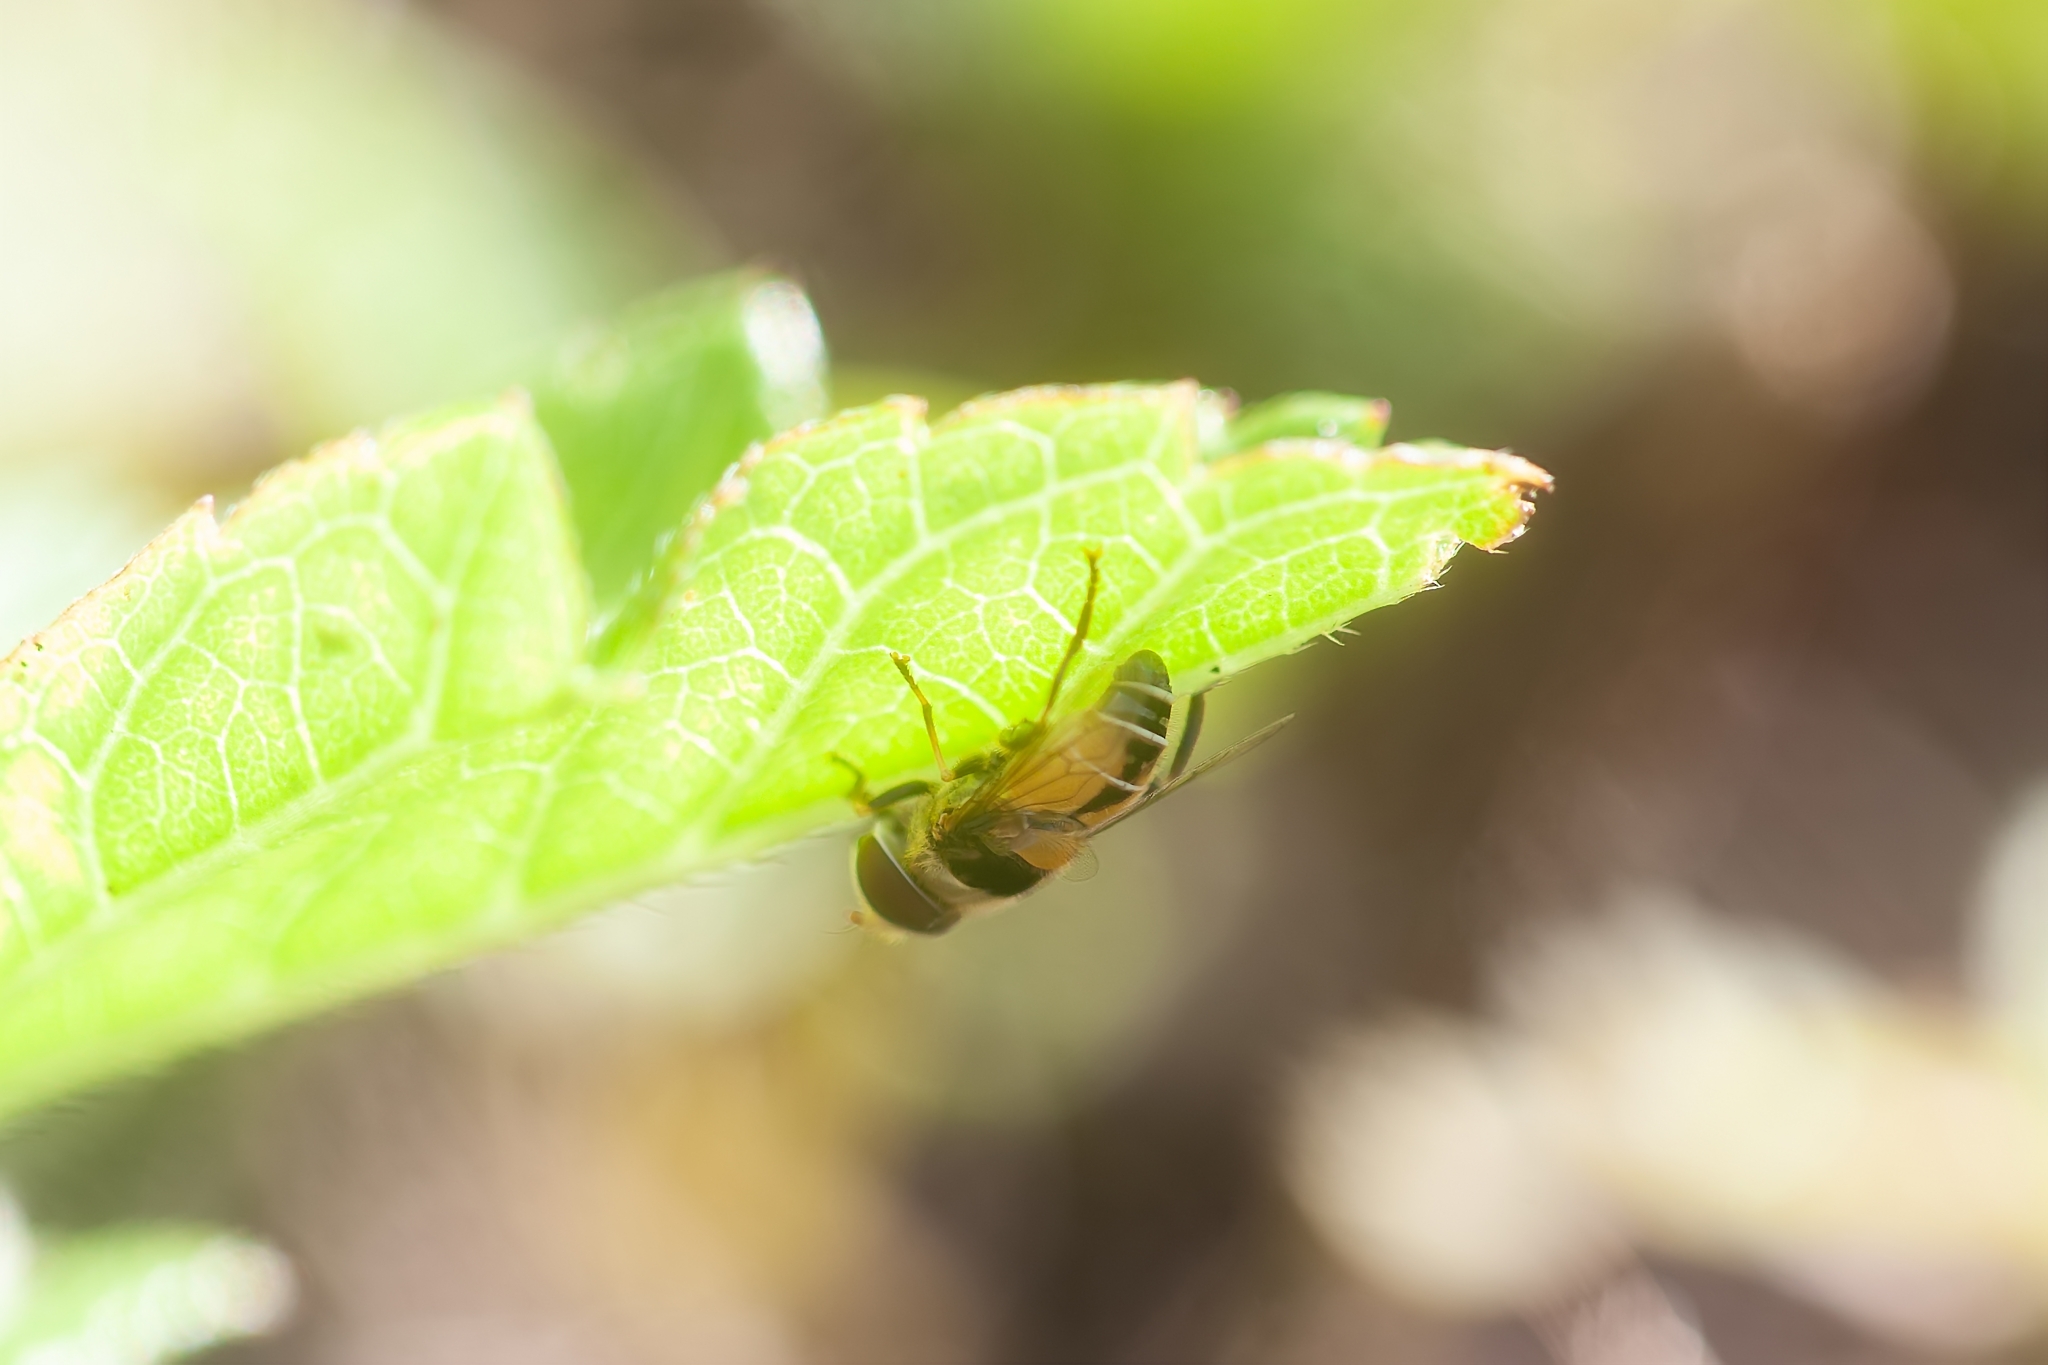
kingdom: Animalia
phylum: Arthropoda
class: Insecta
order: Diptera
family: Syrphidae
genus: Palpada
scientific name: Palpada pusilla
